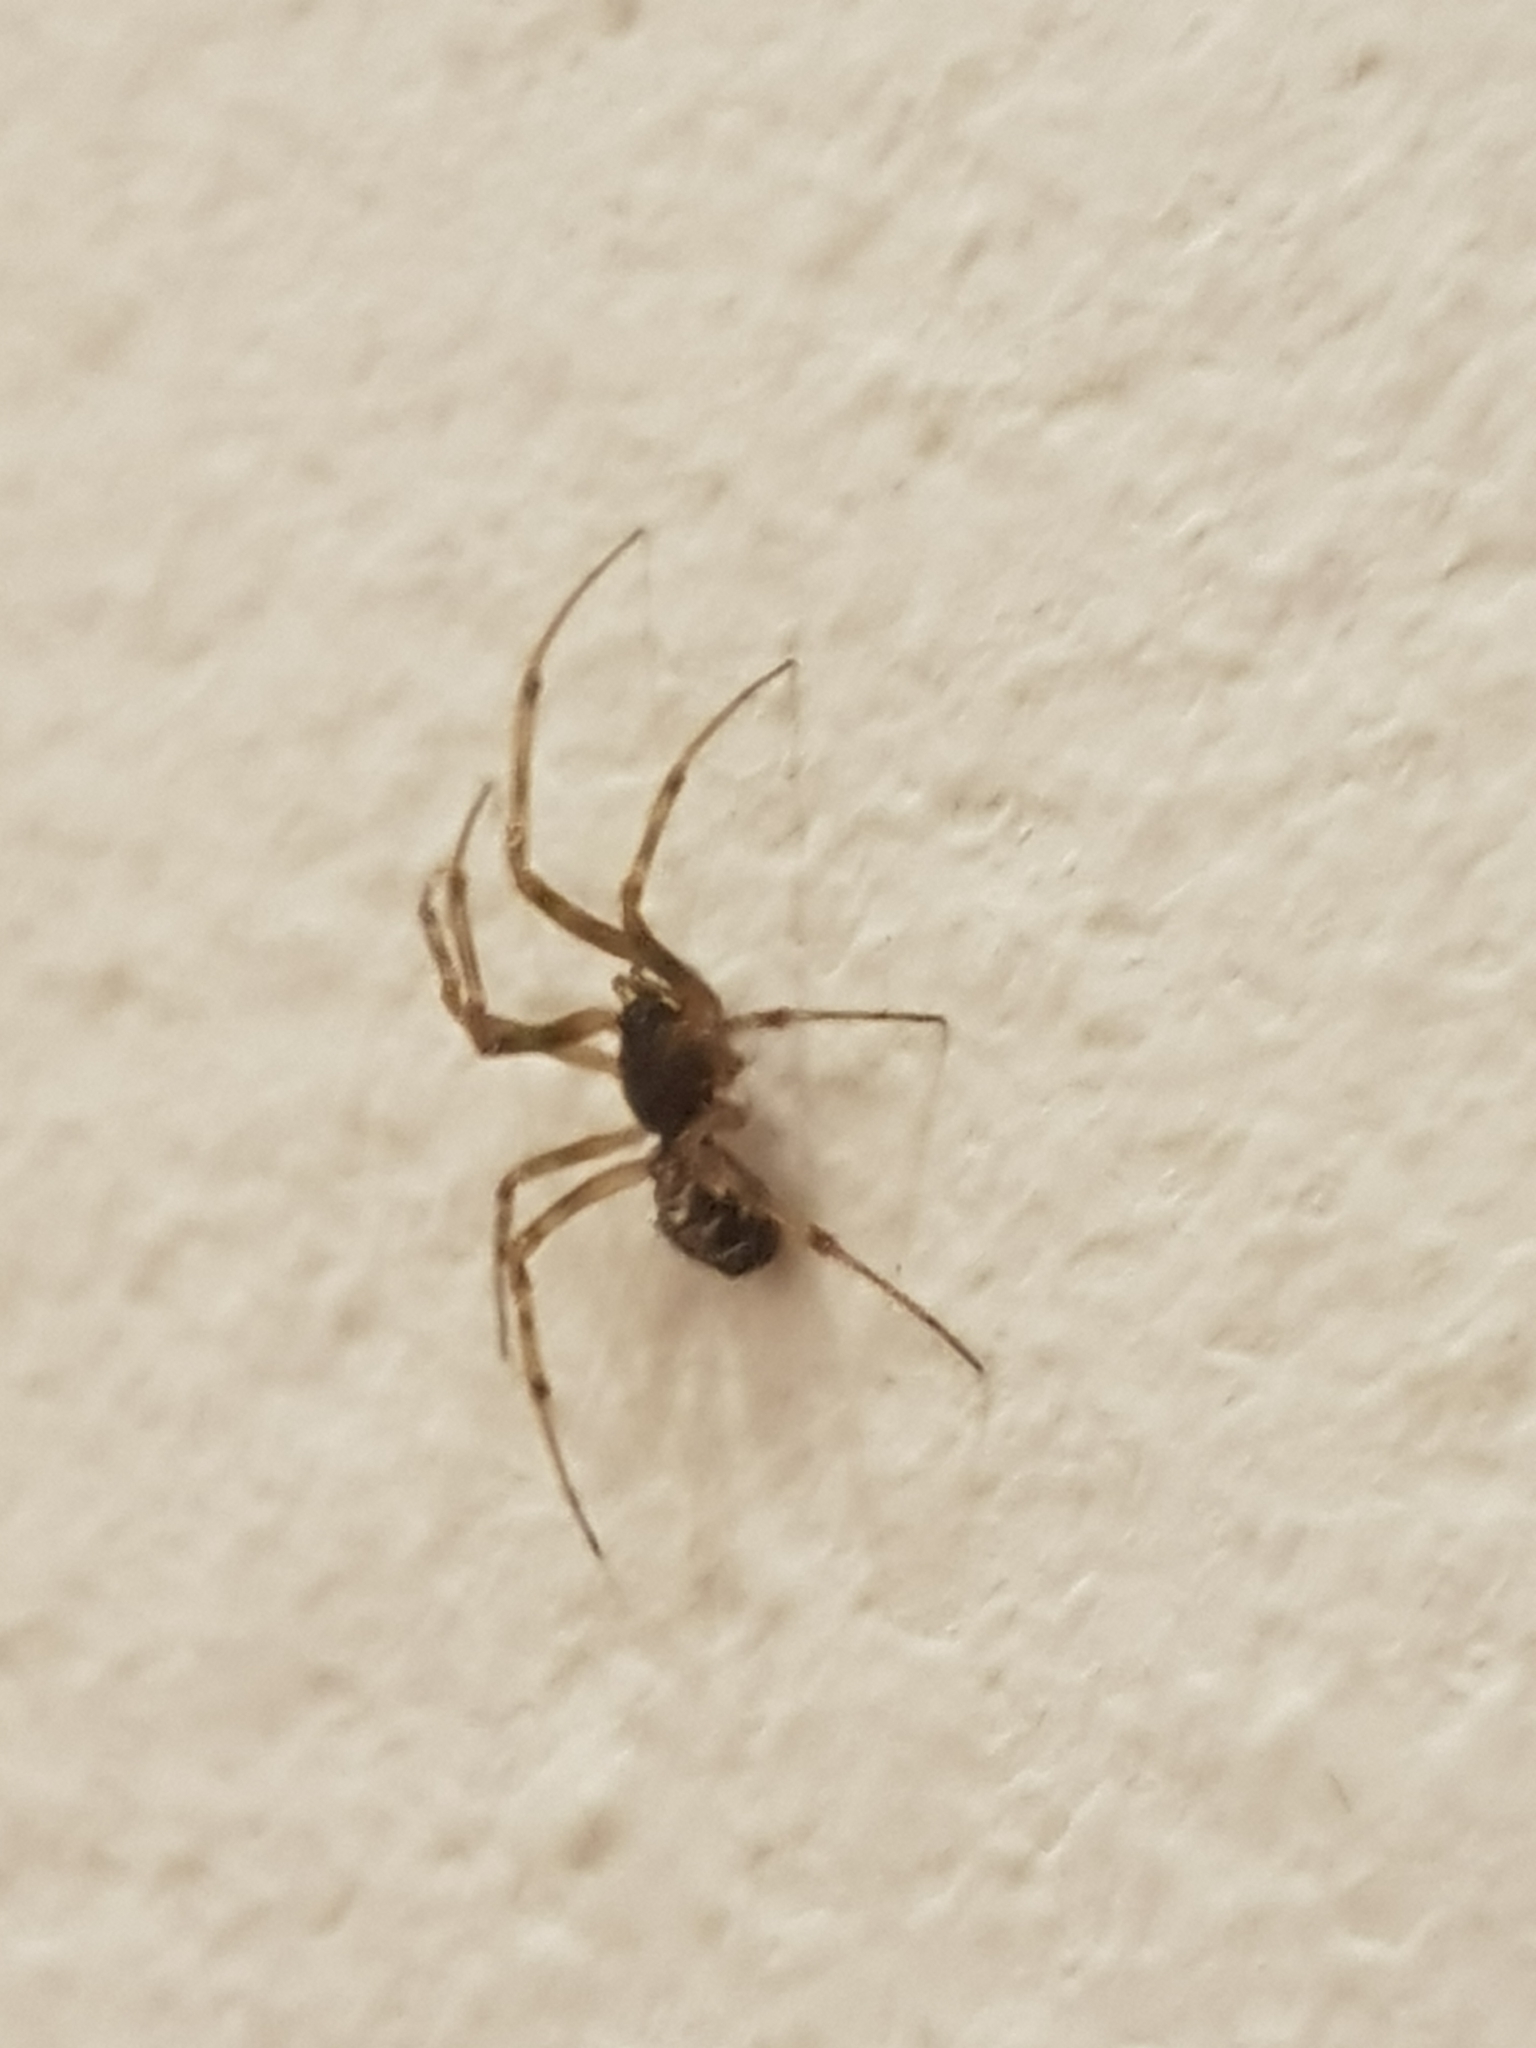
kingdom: Animalia
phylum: Arthropoda
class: Arachnida
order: Araneae
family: Theridiidae
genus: Steatoda
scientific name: Steatoda triangulosa
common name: Triangulate bud spider
